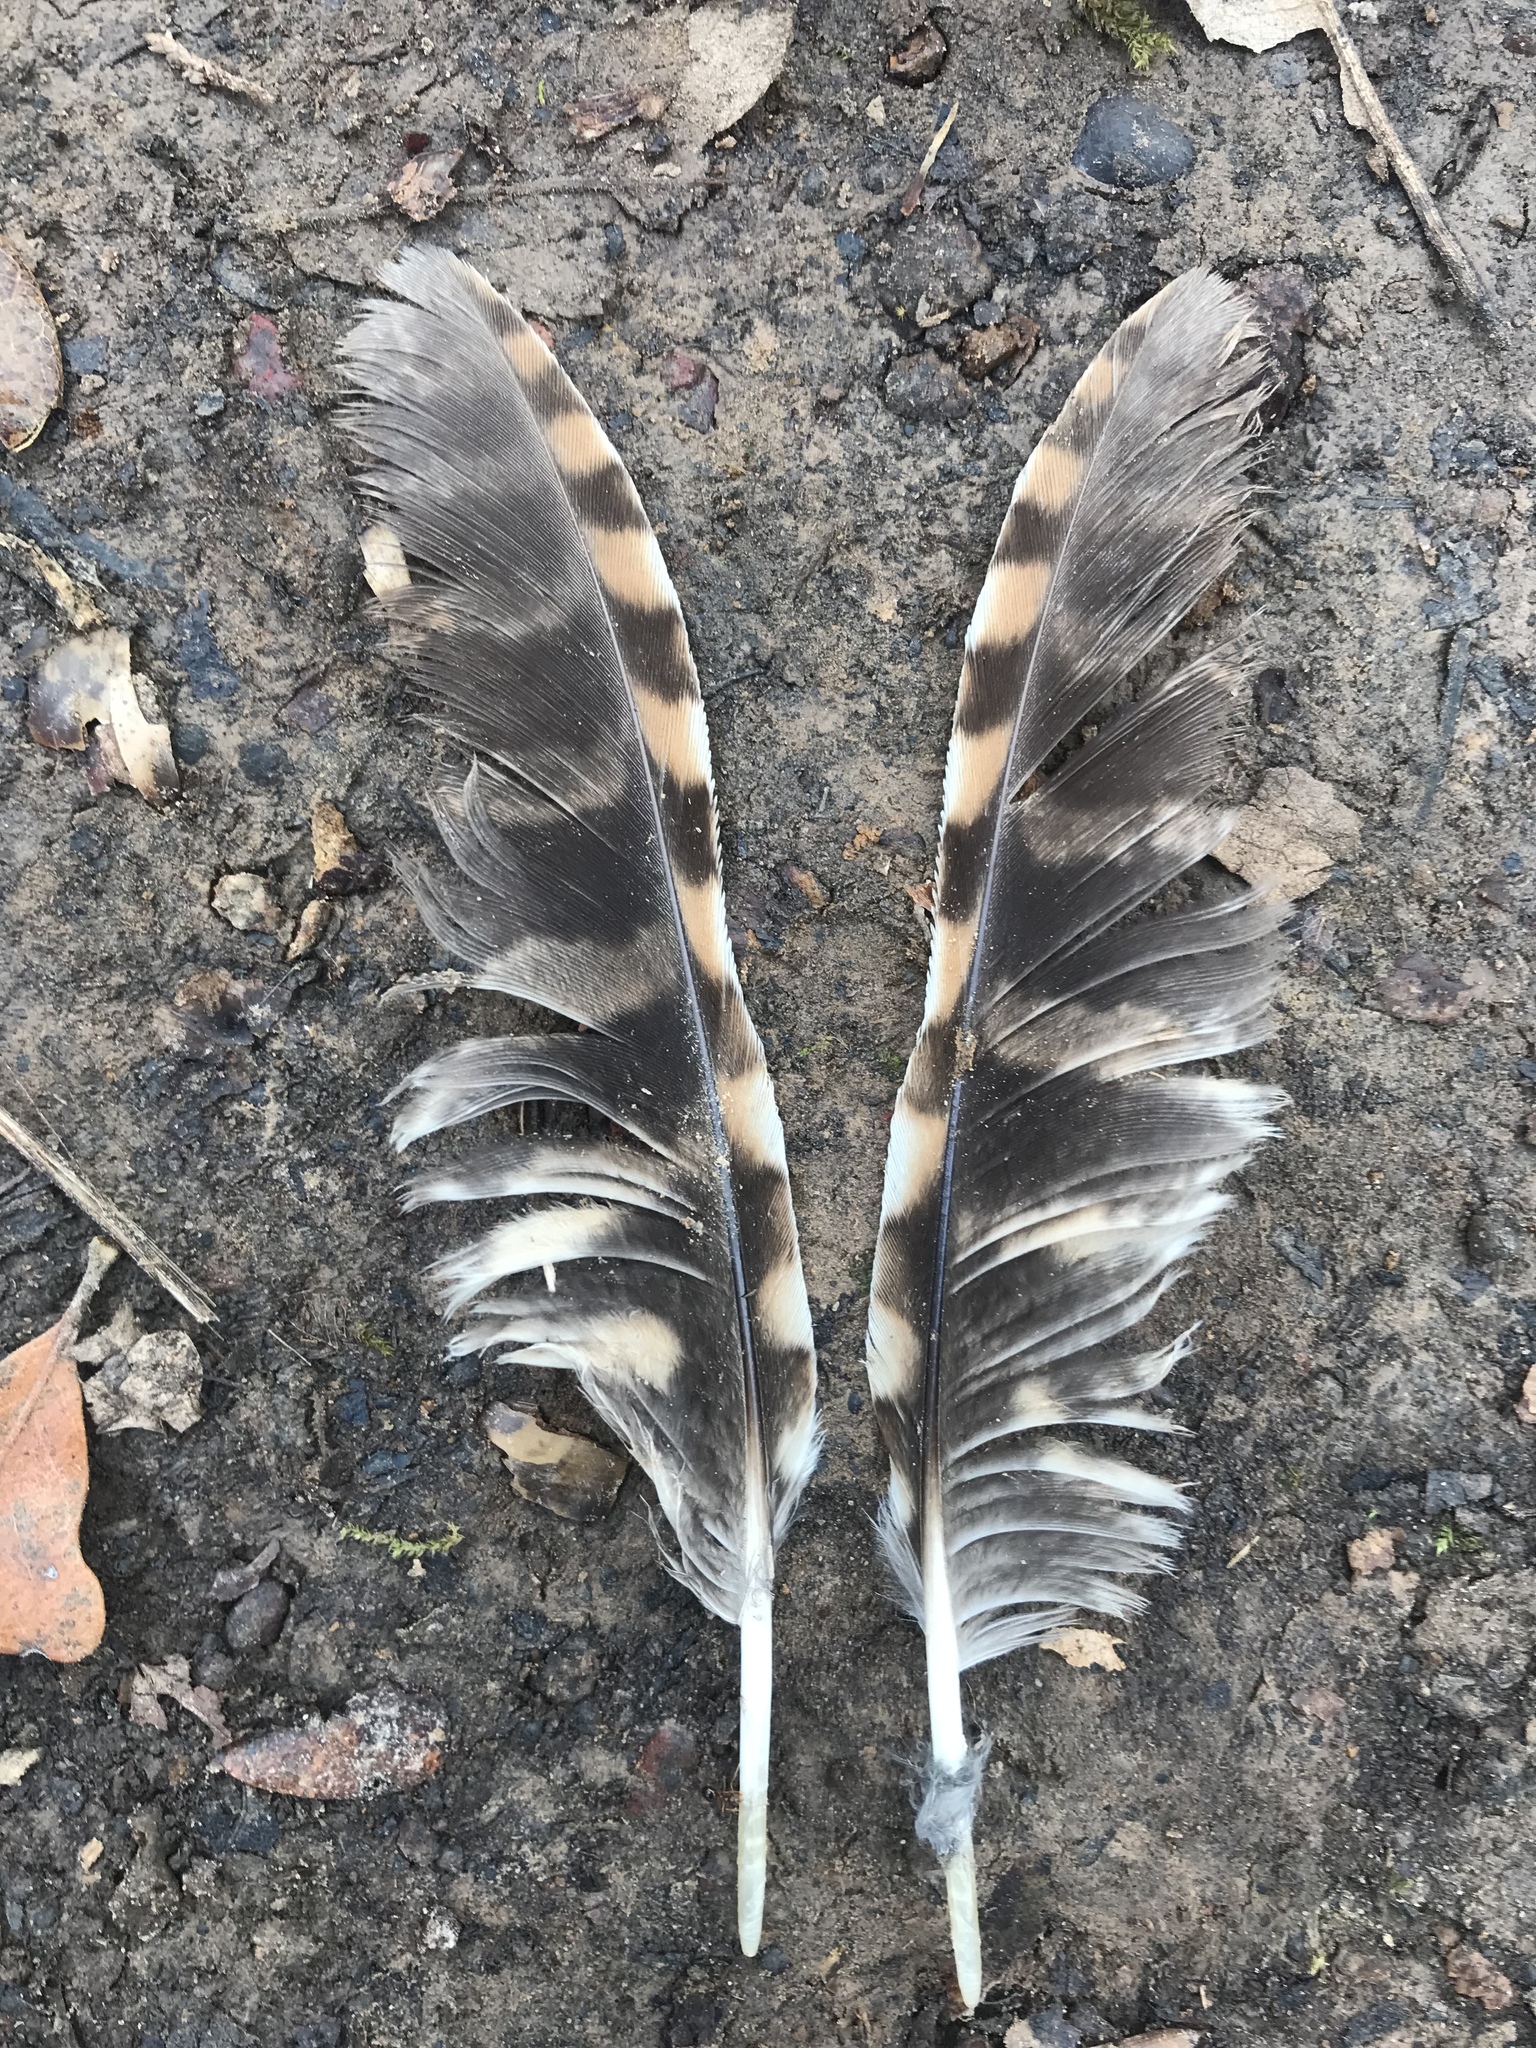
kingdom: Animalia
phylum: Chordata
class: Aves
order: Strigiformes
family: Strigidae
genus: Megascops
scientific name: Megascops asio
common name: Eastern screech-owl
